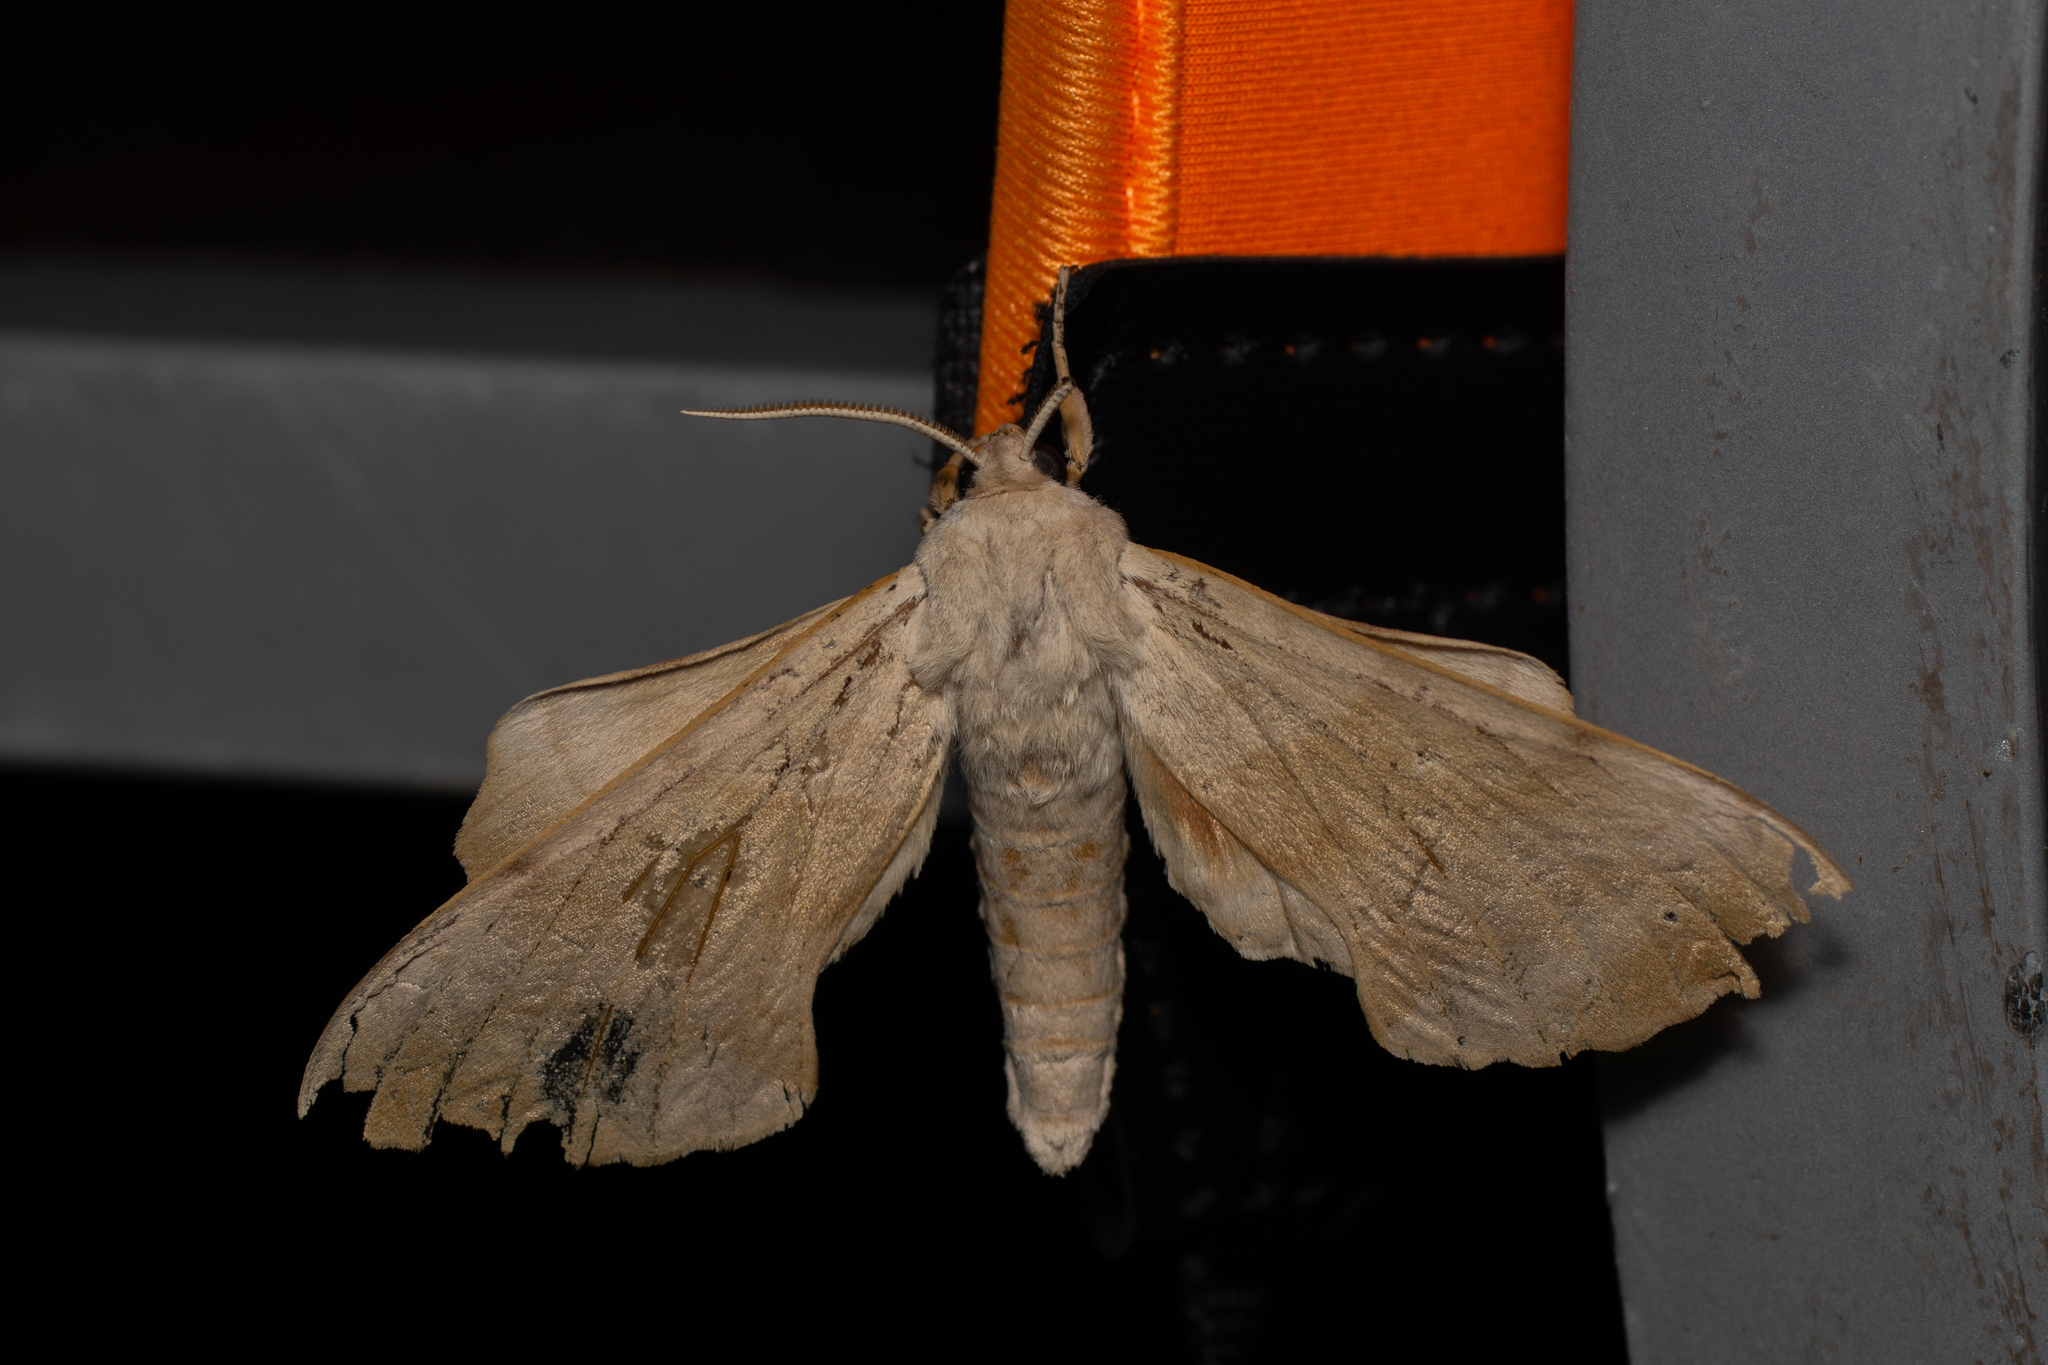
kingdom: Animalia
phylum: Arthropoda
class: Insecta
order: Lepidoptera
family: Sphingidae
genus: Laothoe
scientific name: Laothoe populi
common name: Poplar hawk-moth
